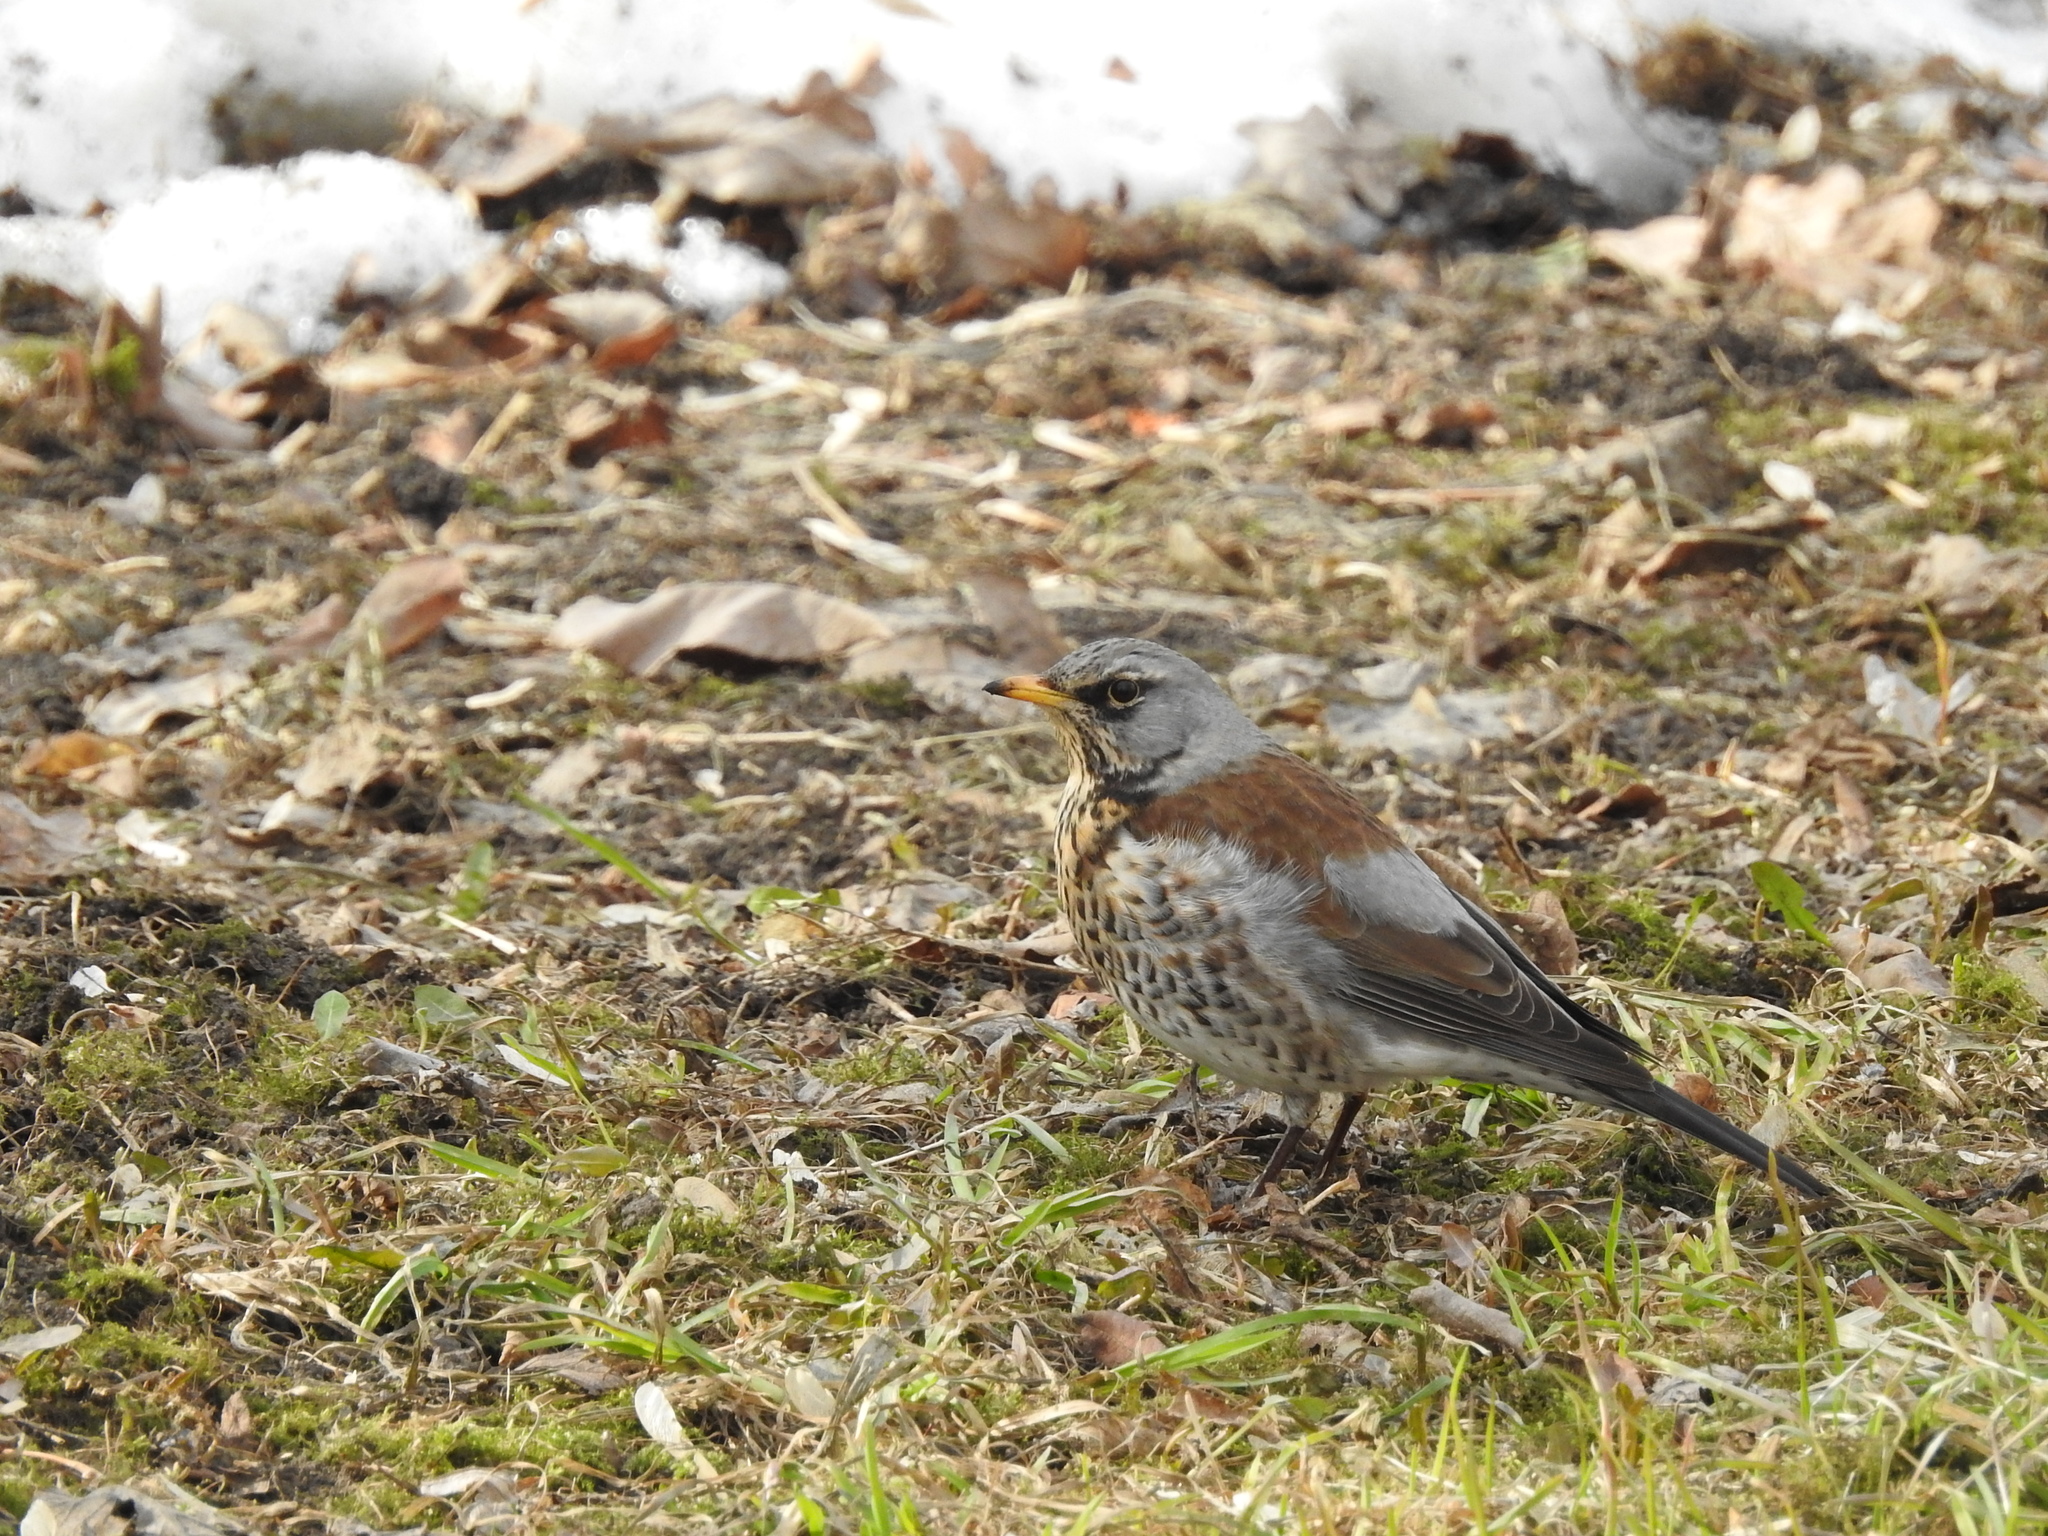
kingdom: Animalia
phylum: Chordata
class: Aves
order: Passeriformes
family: Turdidae
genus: Turdus
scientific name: Turdus pilaris
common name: Fieldfare
